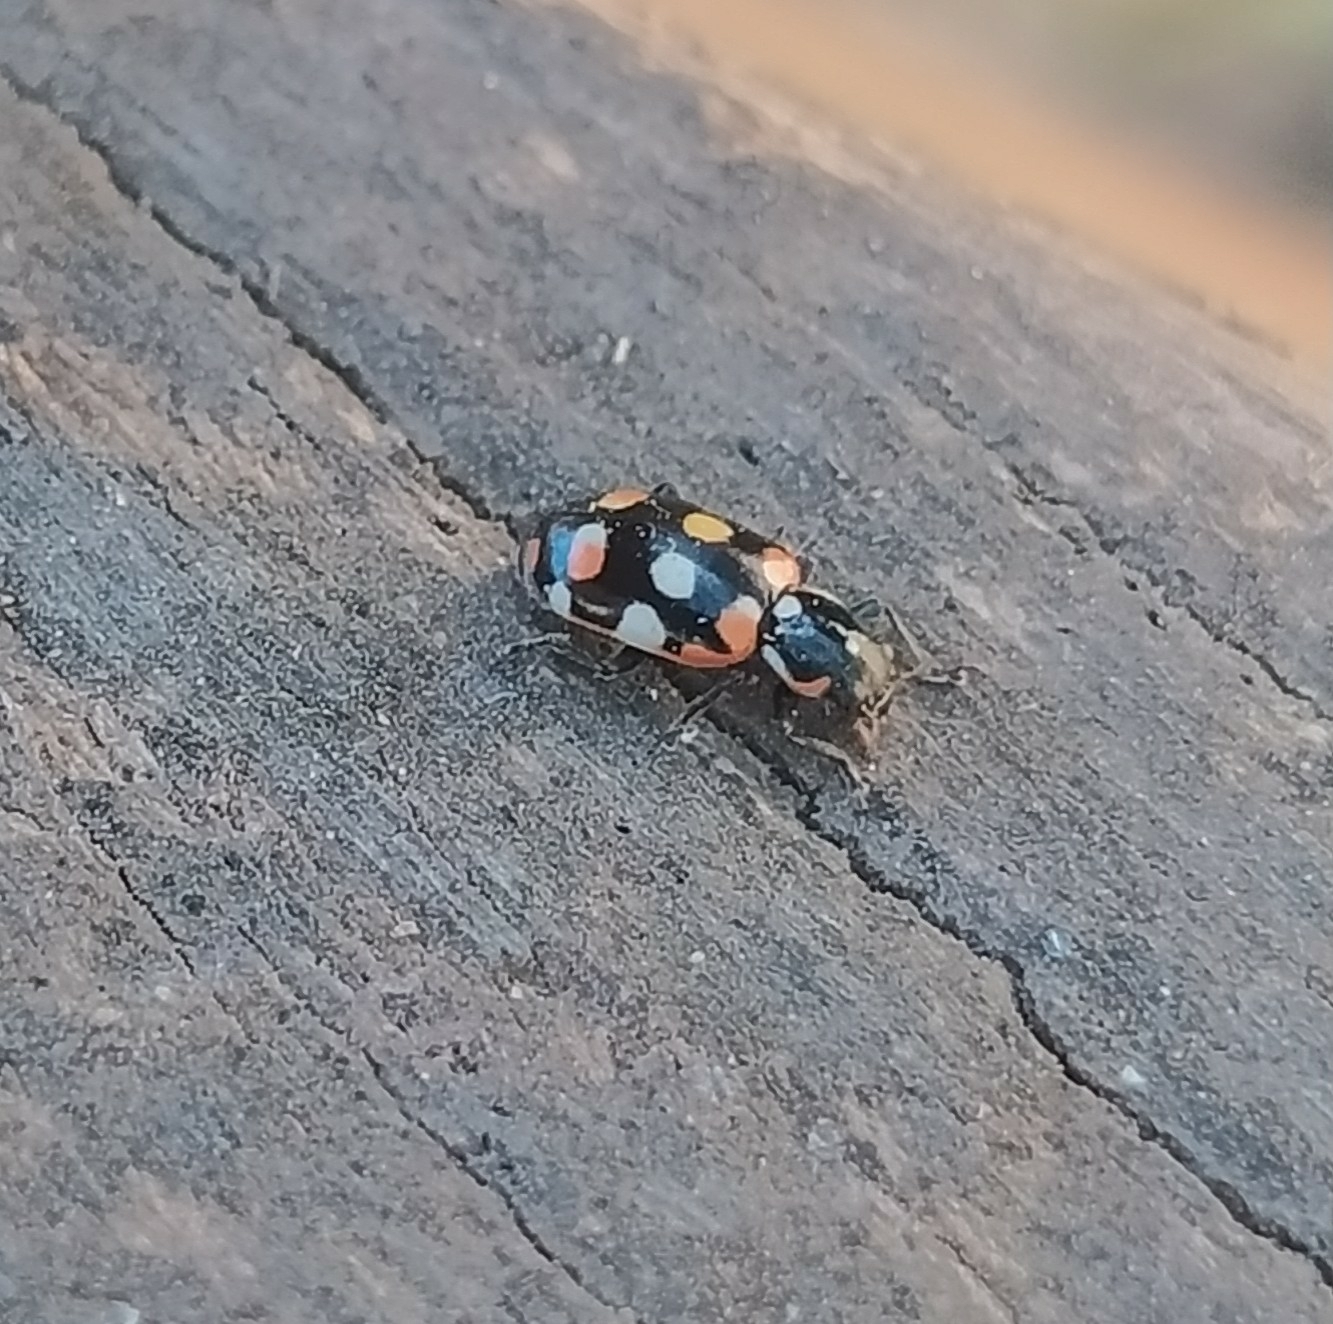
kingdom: Animalia
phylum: Arthropoda
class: Insecta
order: Coleoptera
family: Coccinellidae
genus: Eriopis
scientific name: Eriopis connexa
